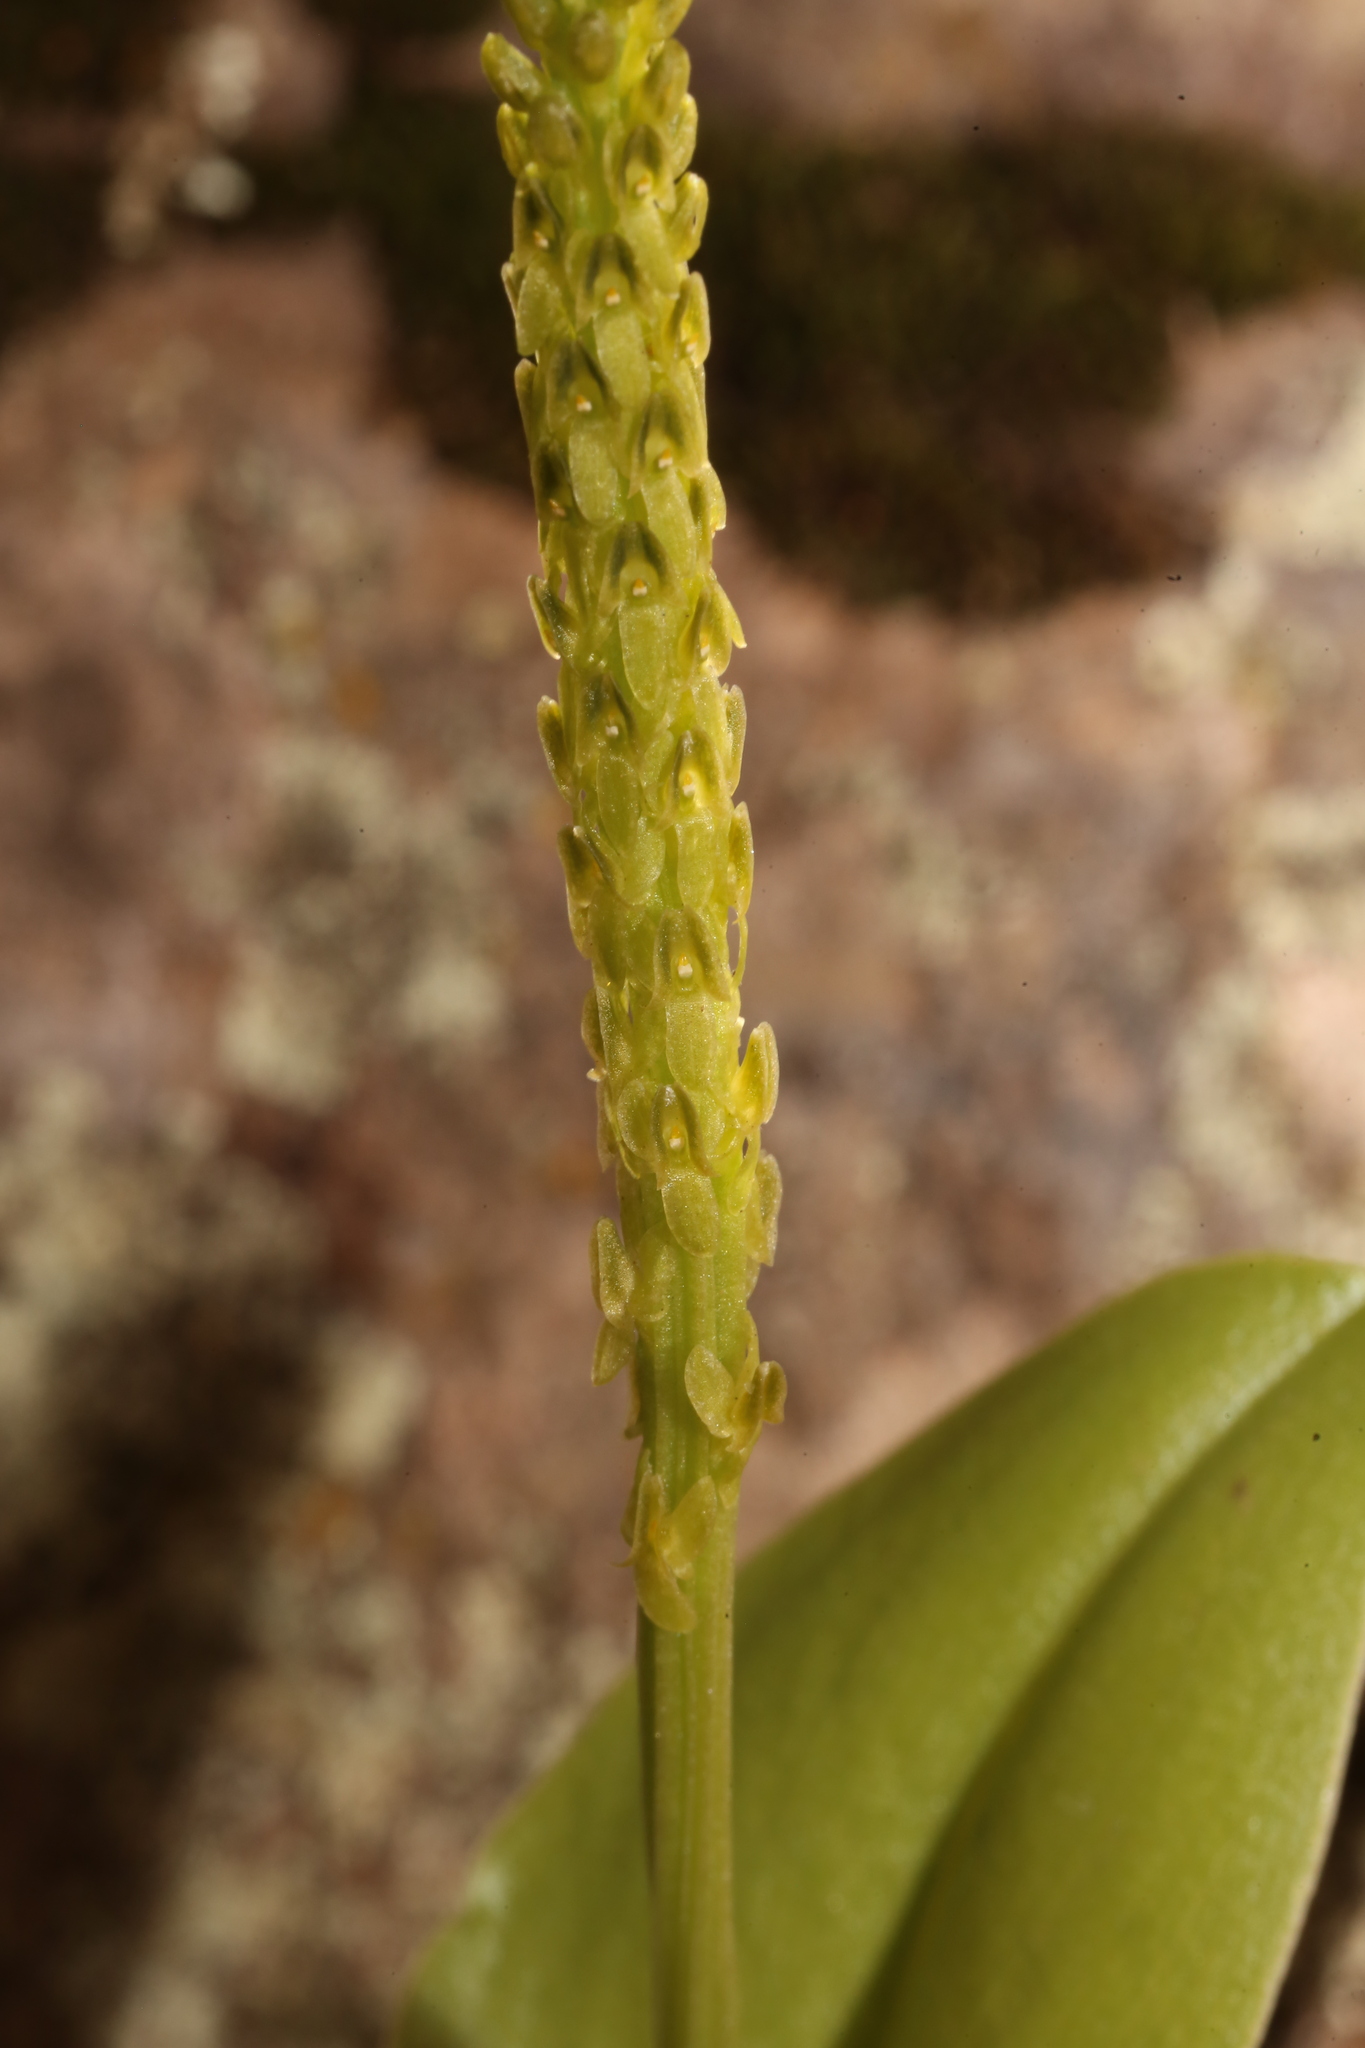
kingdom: Plantae
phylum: Tracheophyta
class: Liliopsida
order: Asparagales
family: Orchidaceae
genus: Malaxis
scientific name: Malaxis macrostachya
